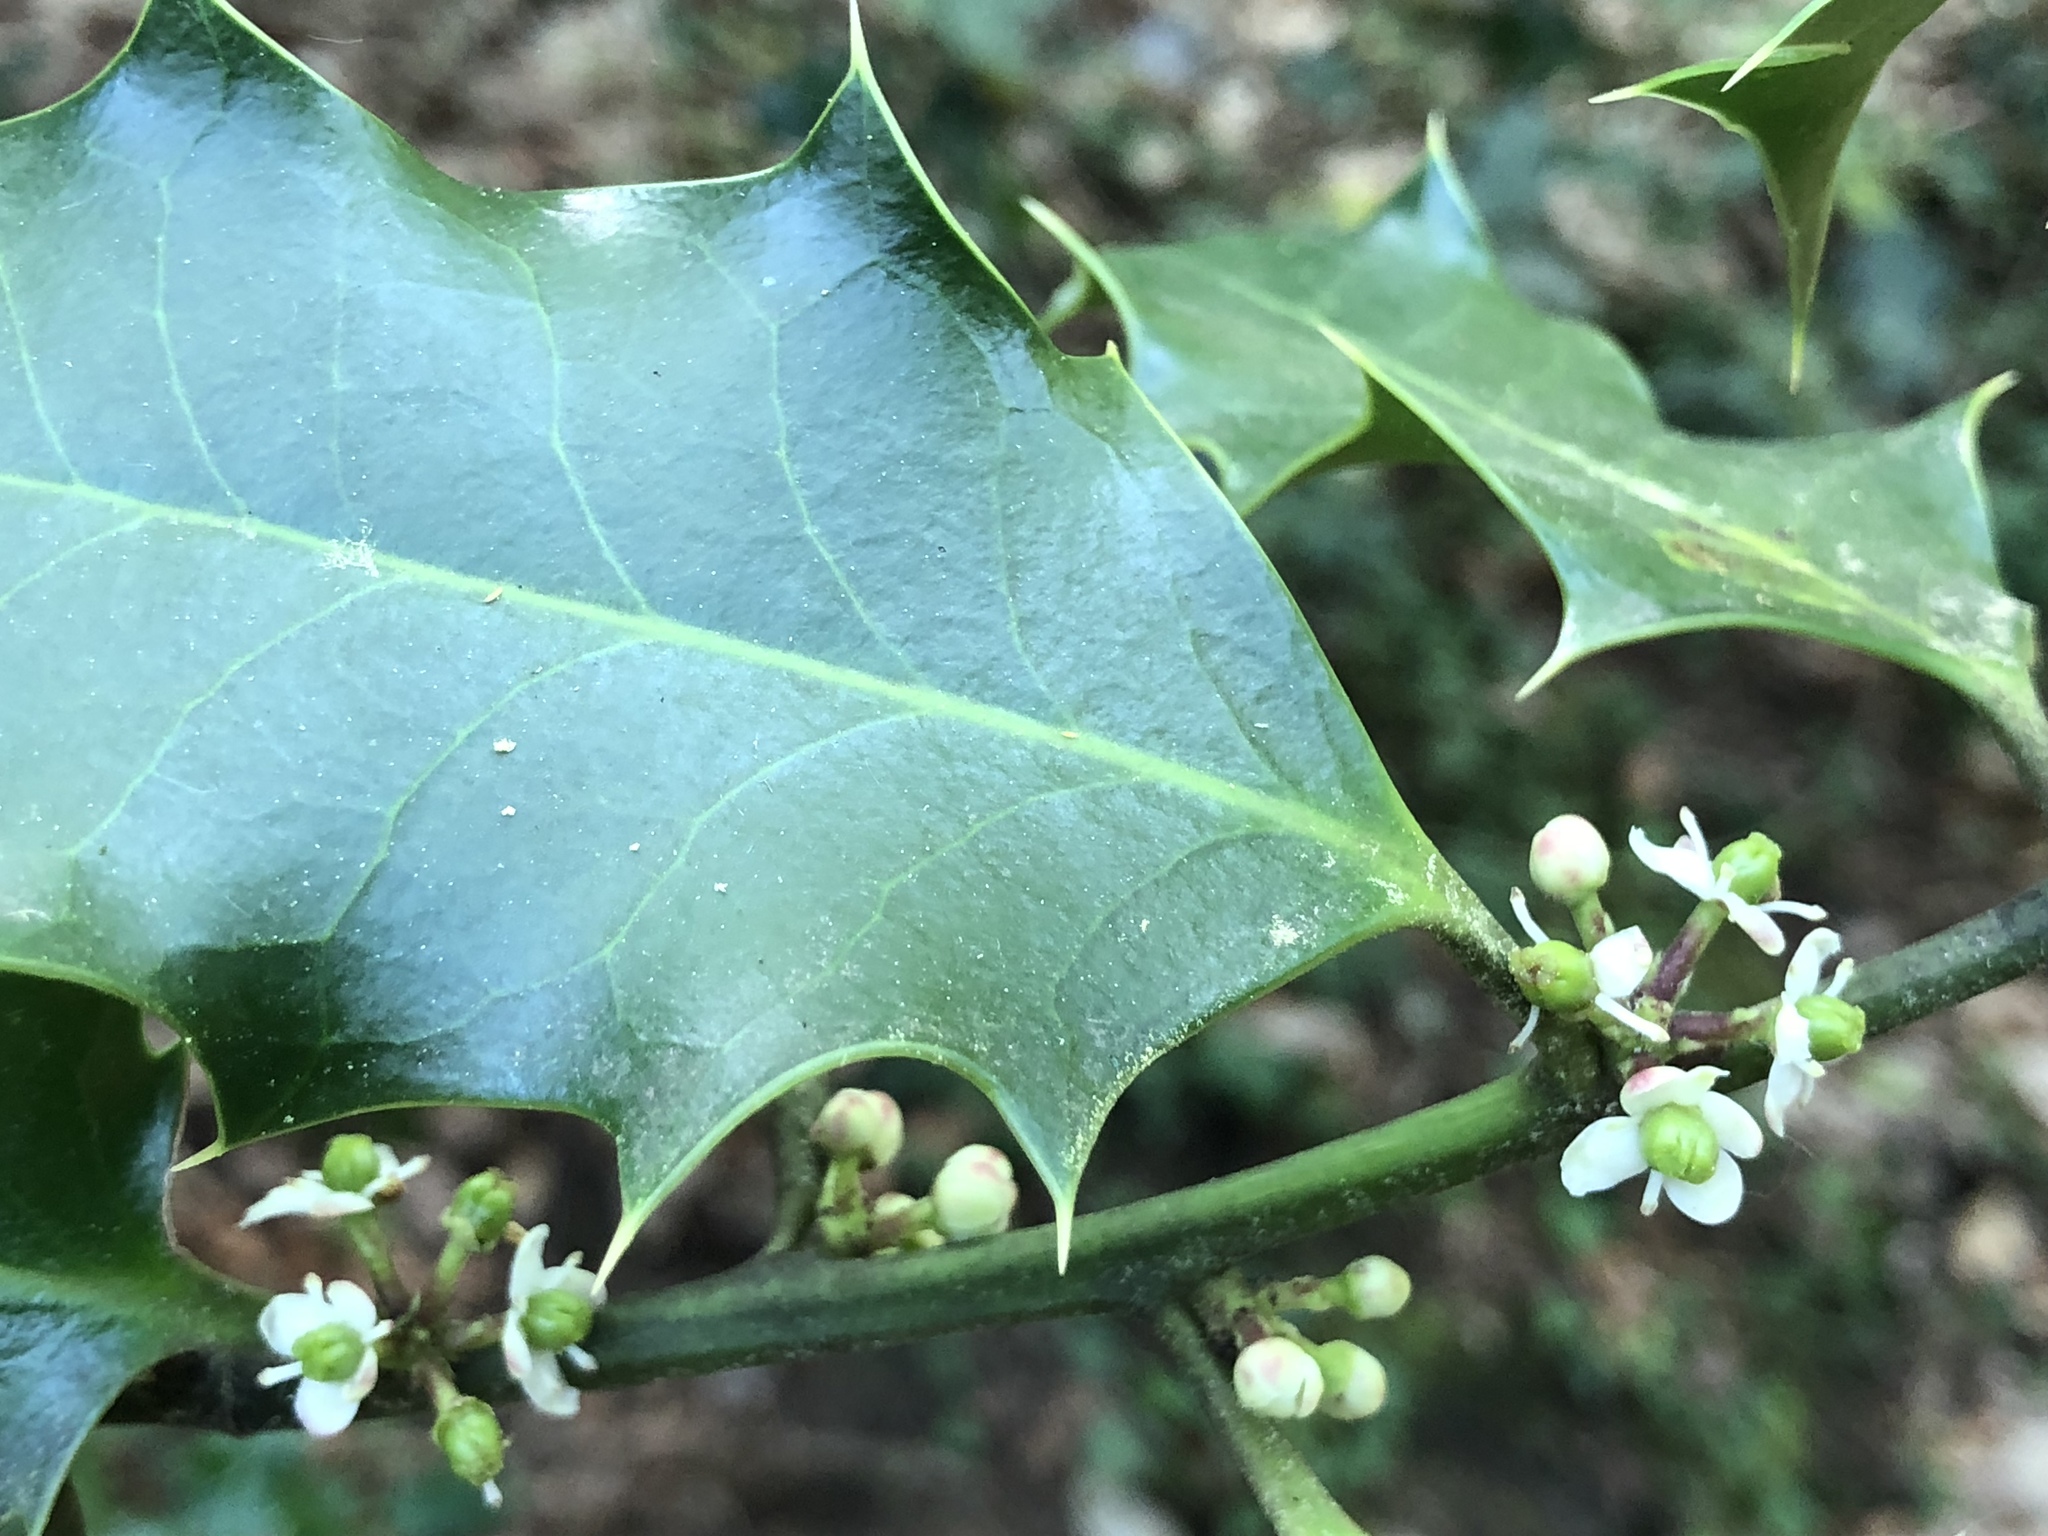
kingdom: Plantae
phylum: Tracheophyta
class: Magnoliopsida
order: Aquifoliales
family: Aquifoliaceae
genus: Ilex
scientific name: Ilex aquifolium
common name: English holly
